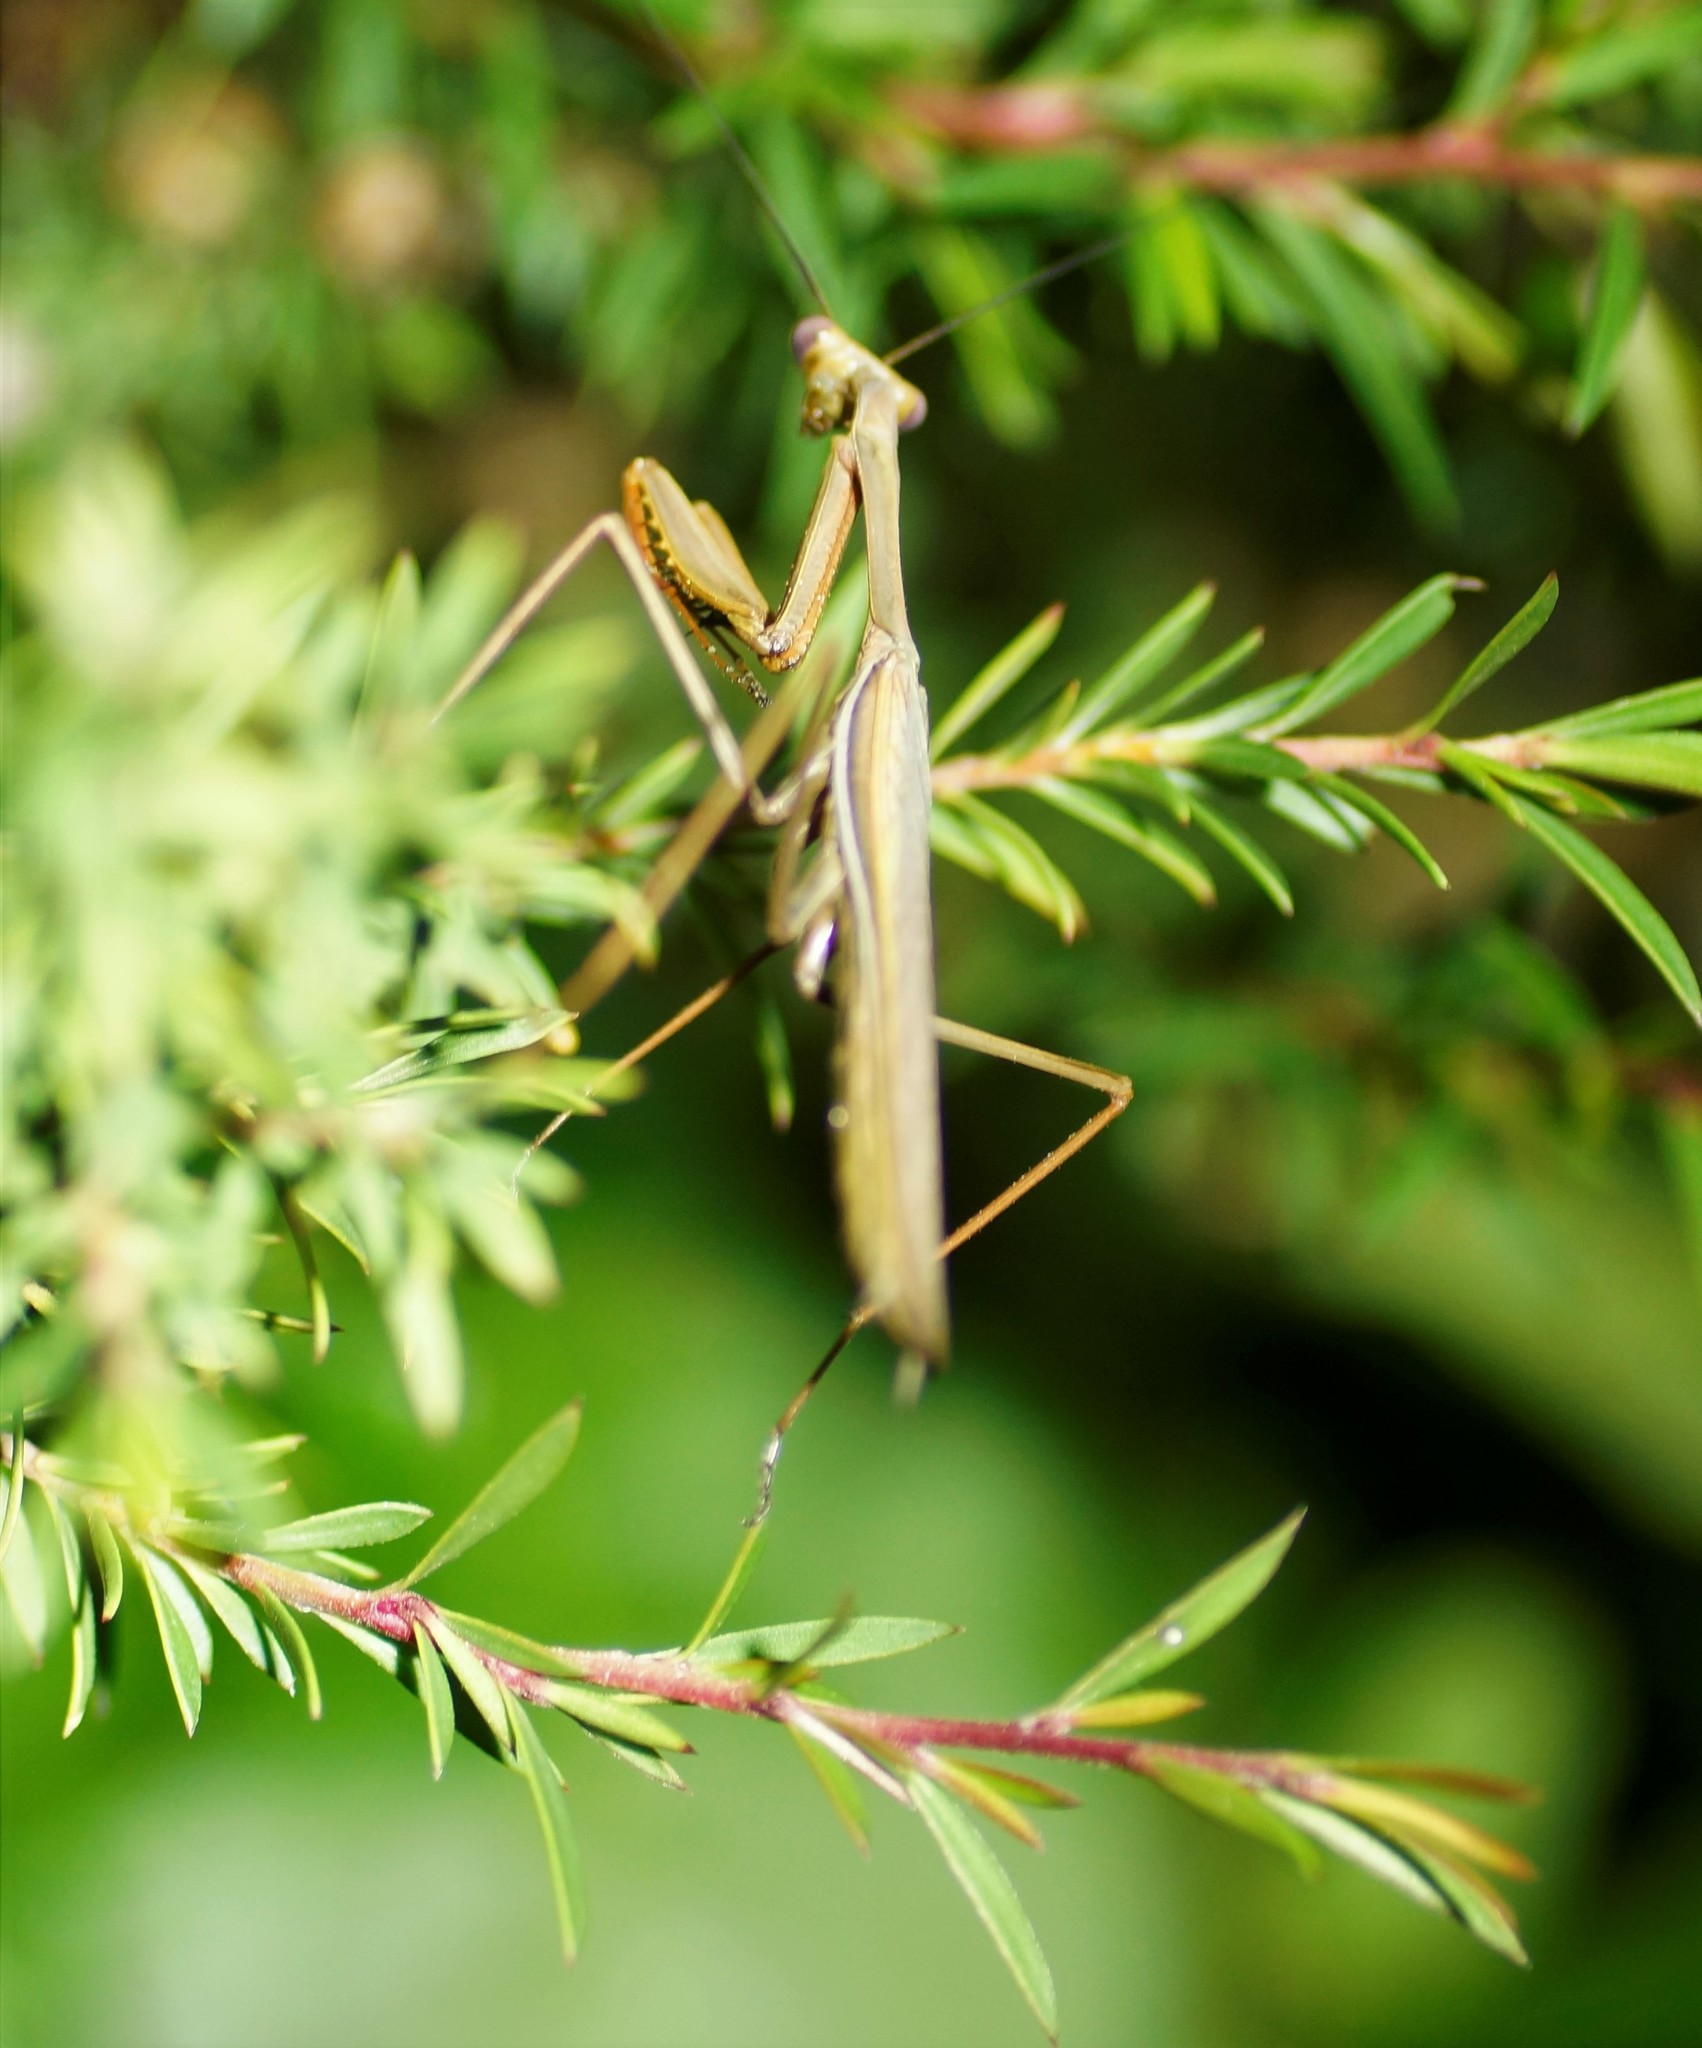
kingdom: Animalia
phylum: Arthropoda
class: Insecta
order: Mantodea
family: Mantidae
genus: Pseudomantis
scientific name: Pseudomantis albofimbriata
